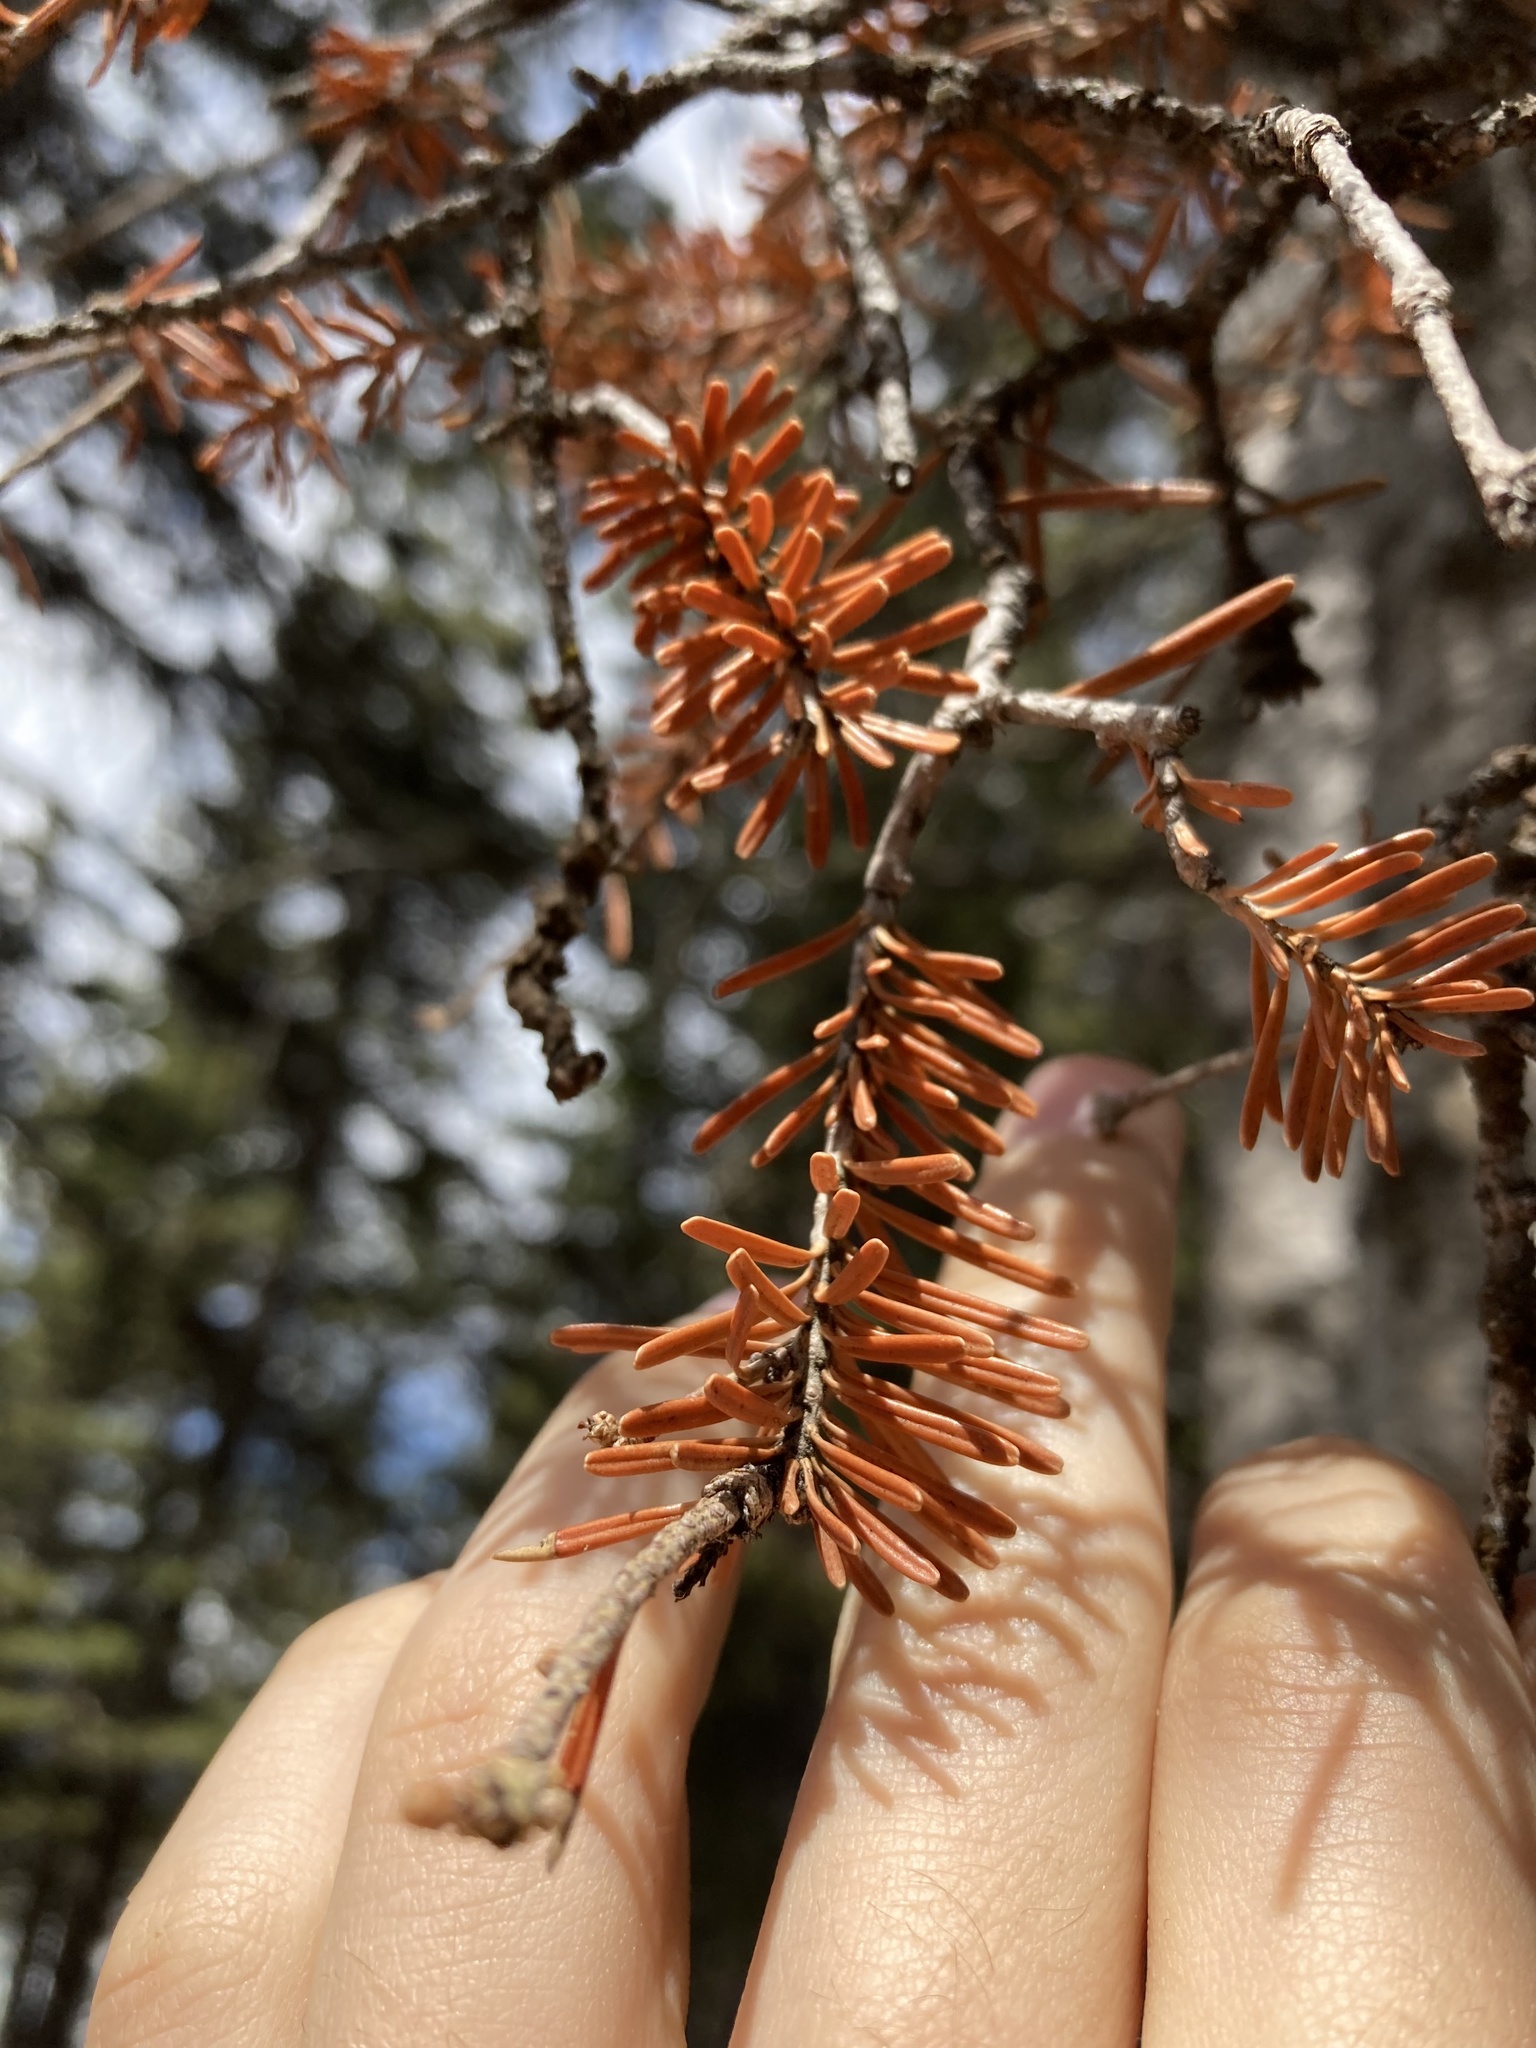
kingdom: Plantae
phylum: Tracheophyta
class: Pinopsida
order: Pinales
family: Pinaceae
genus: Abies
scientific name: Abies lasiocarpa
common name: Subalpine fir
